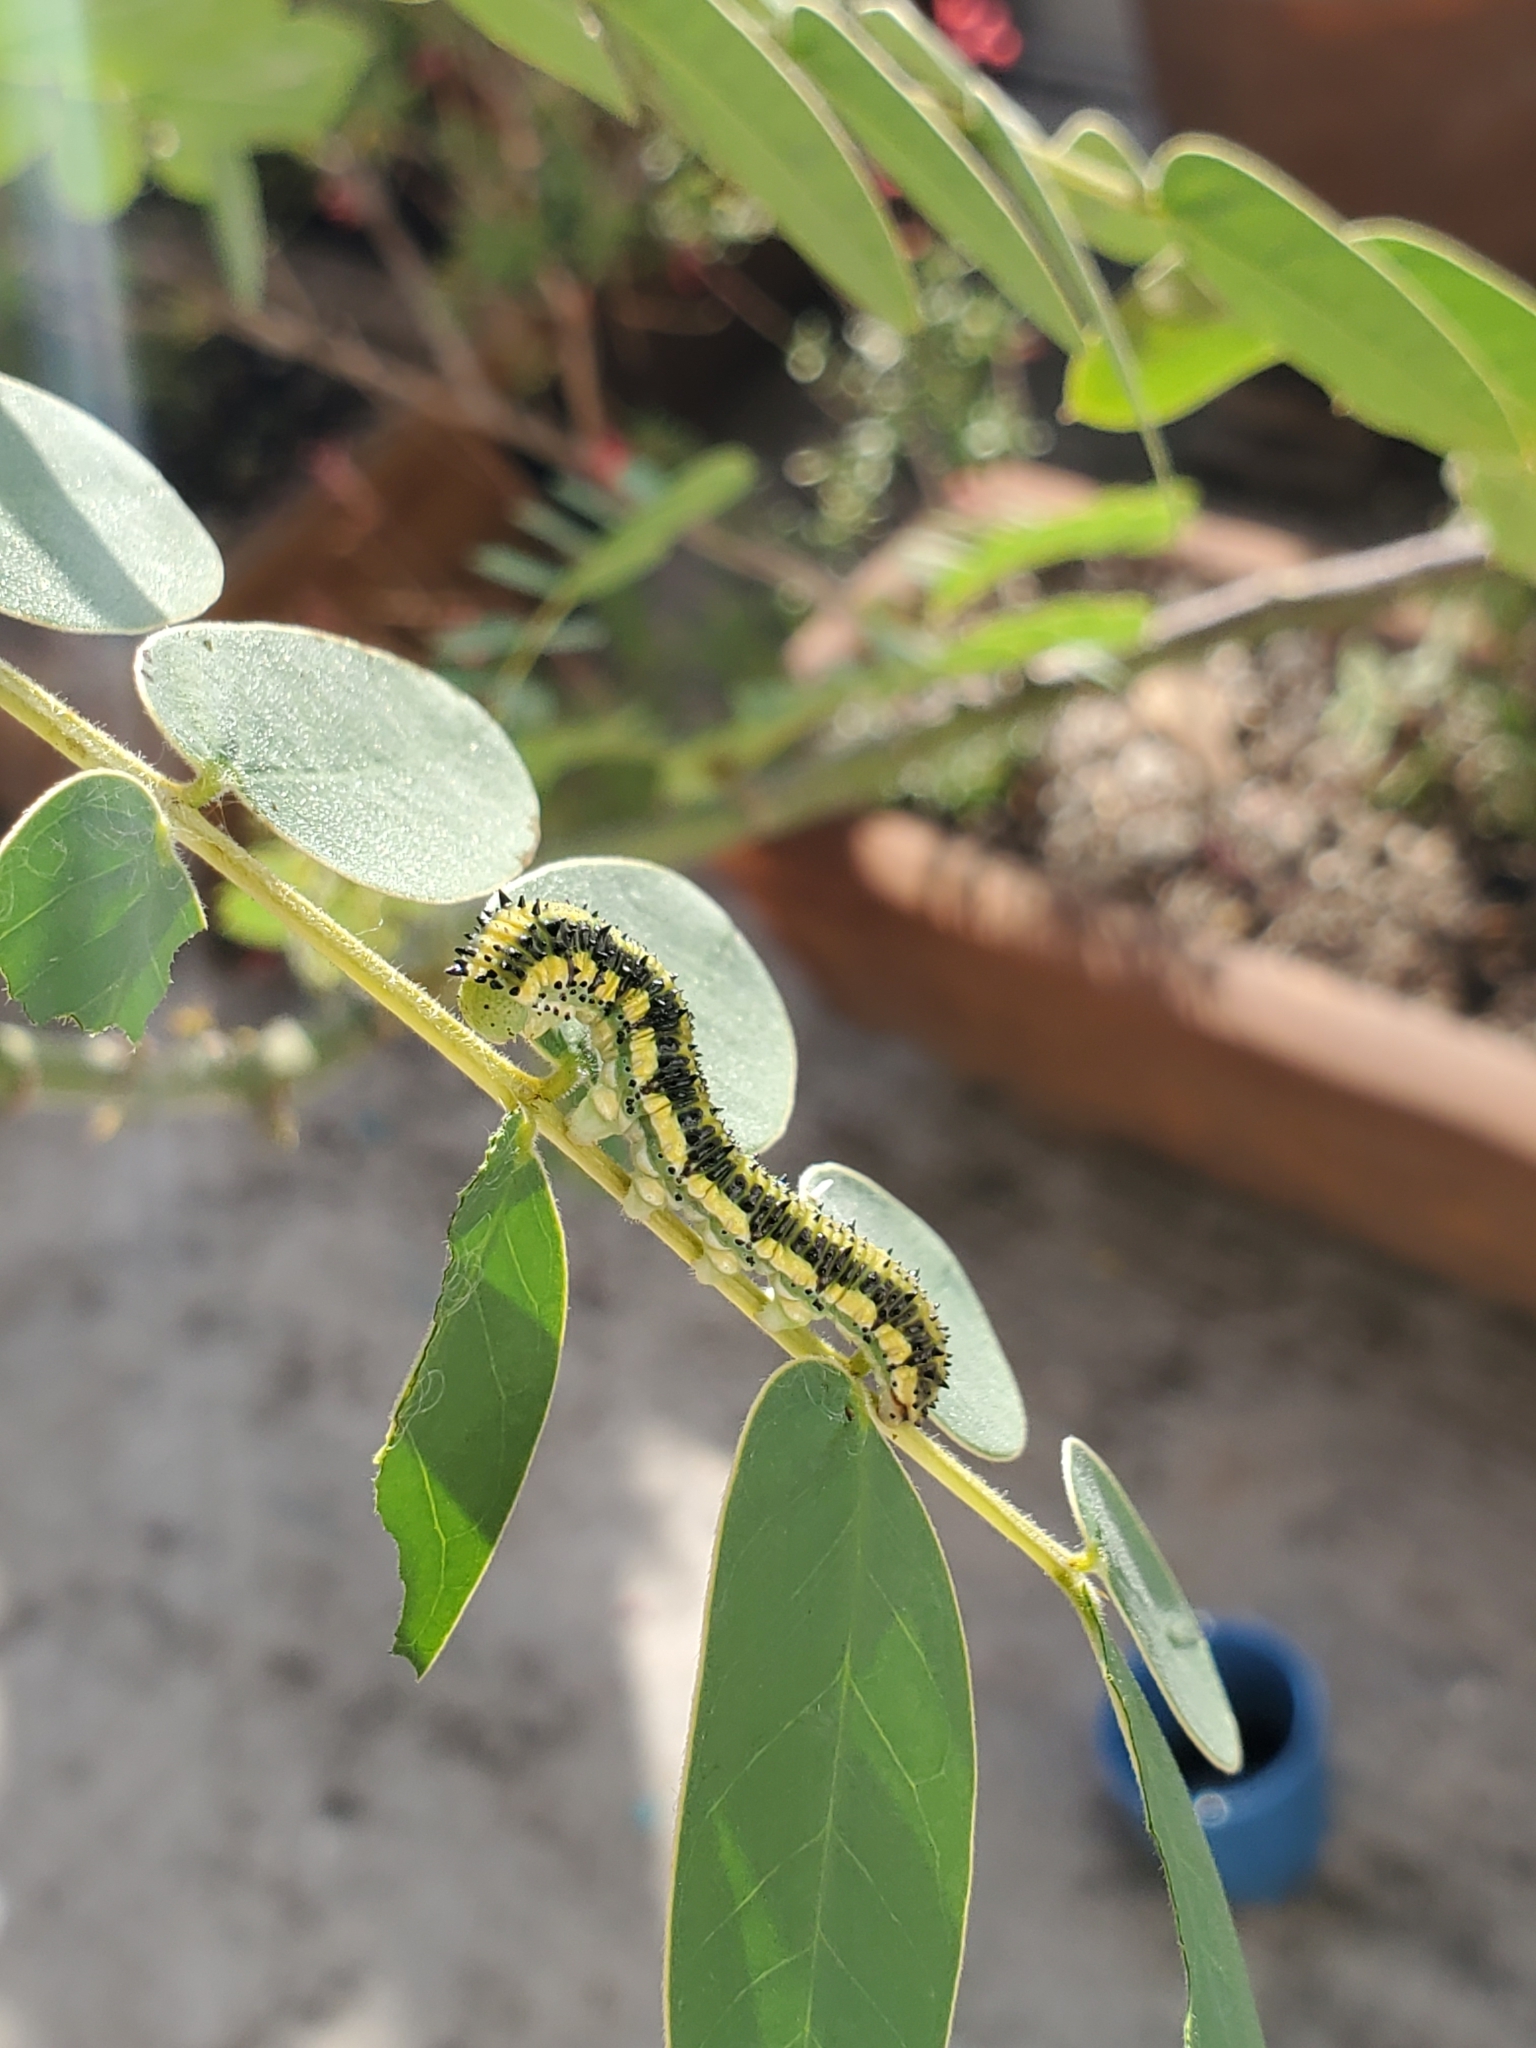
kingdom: Animalia
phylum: Arthropoda
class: Insecta
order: Lepidoptera
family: Pieridae
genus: Phoebis
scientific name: Phoebis philea
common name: Orange-barred giant sulphur
